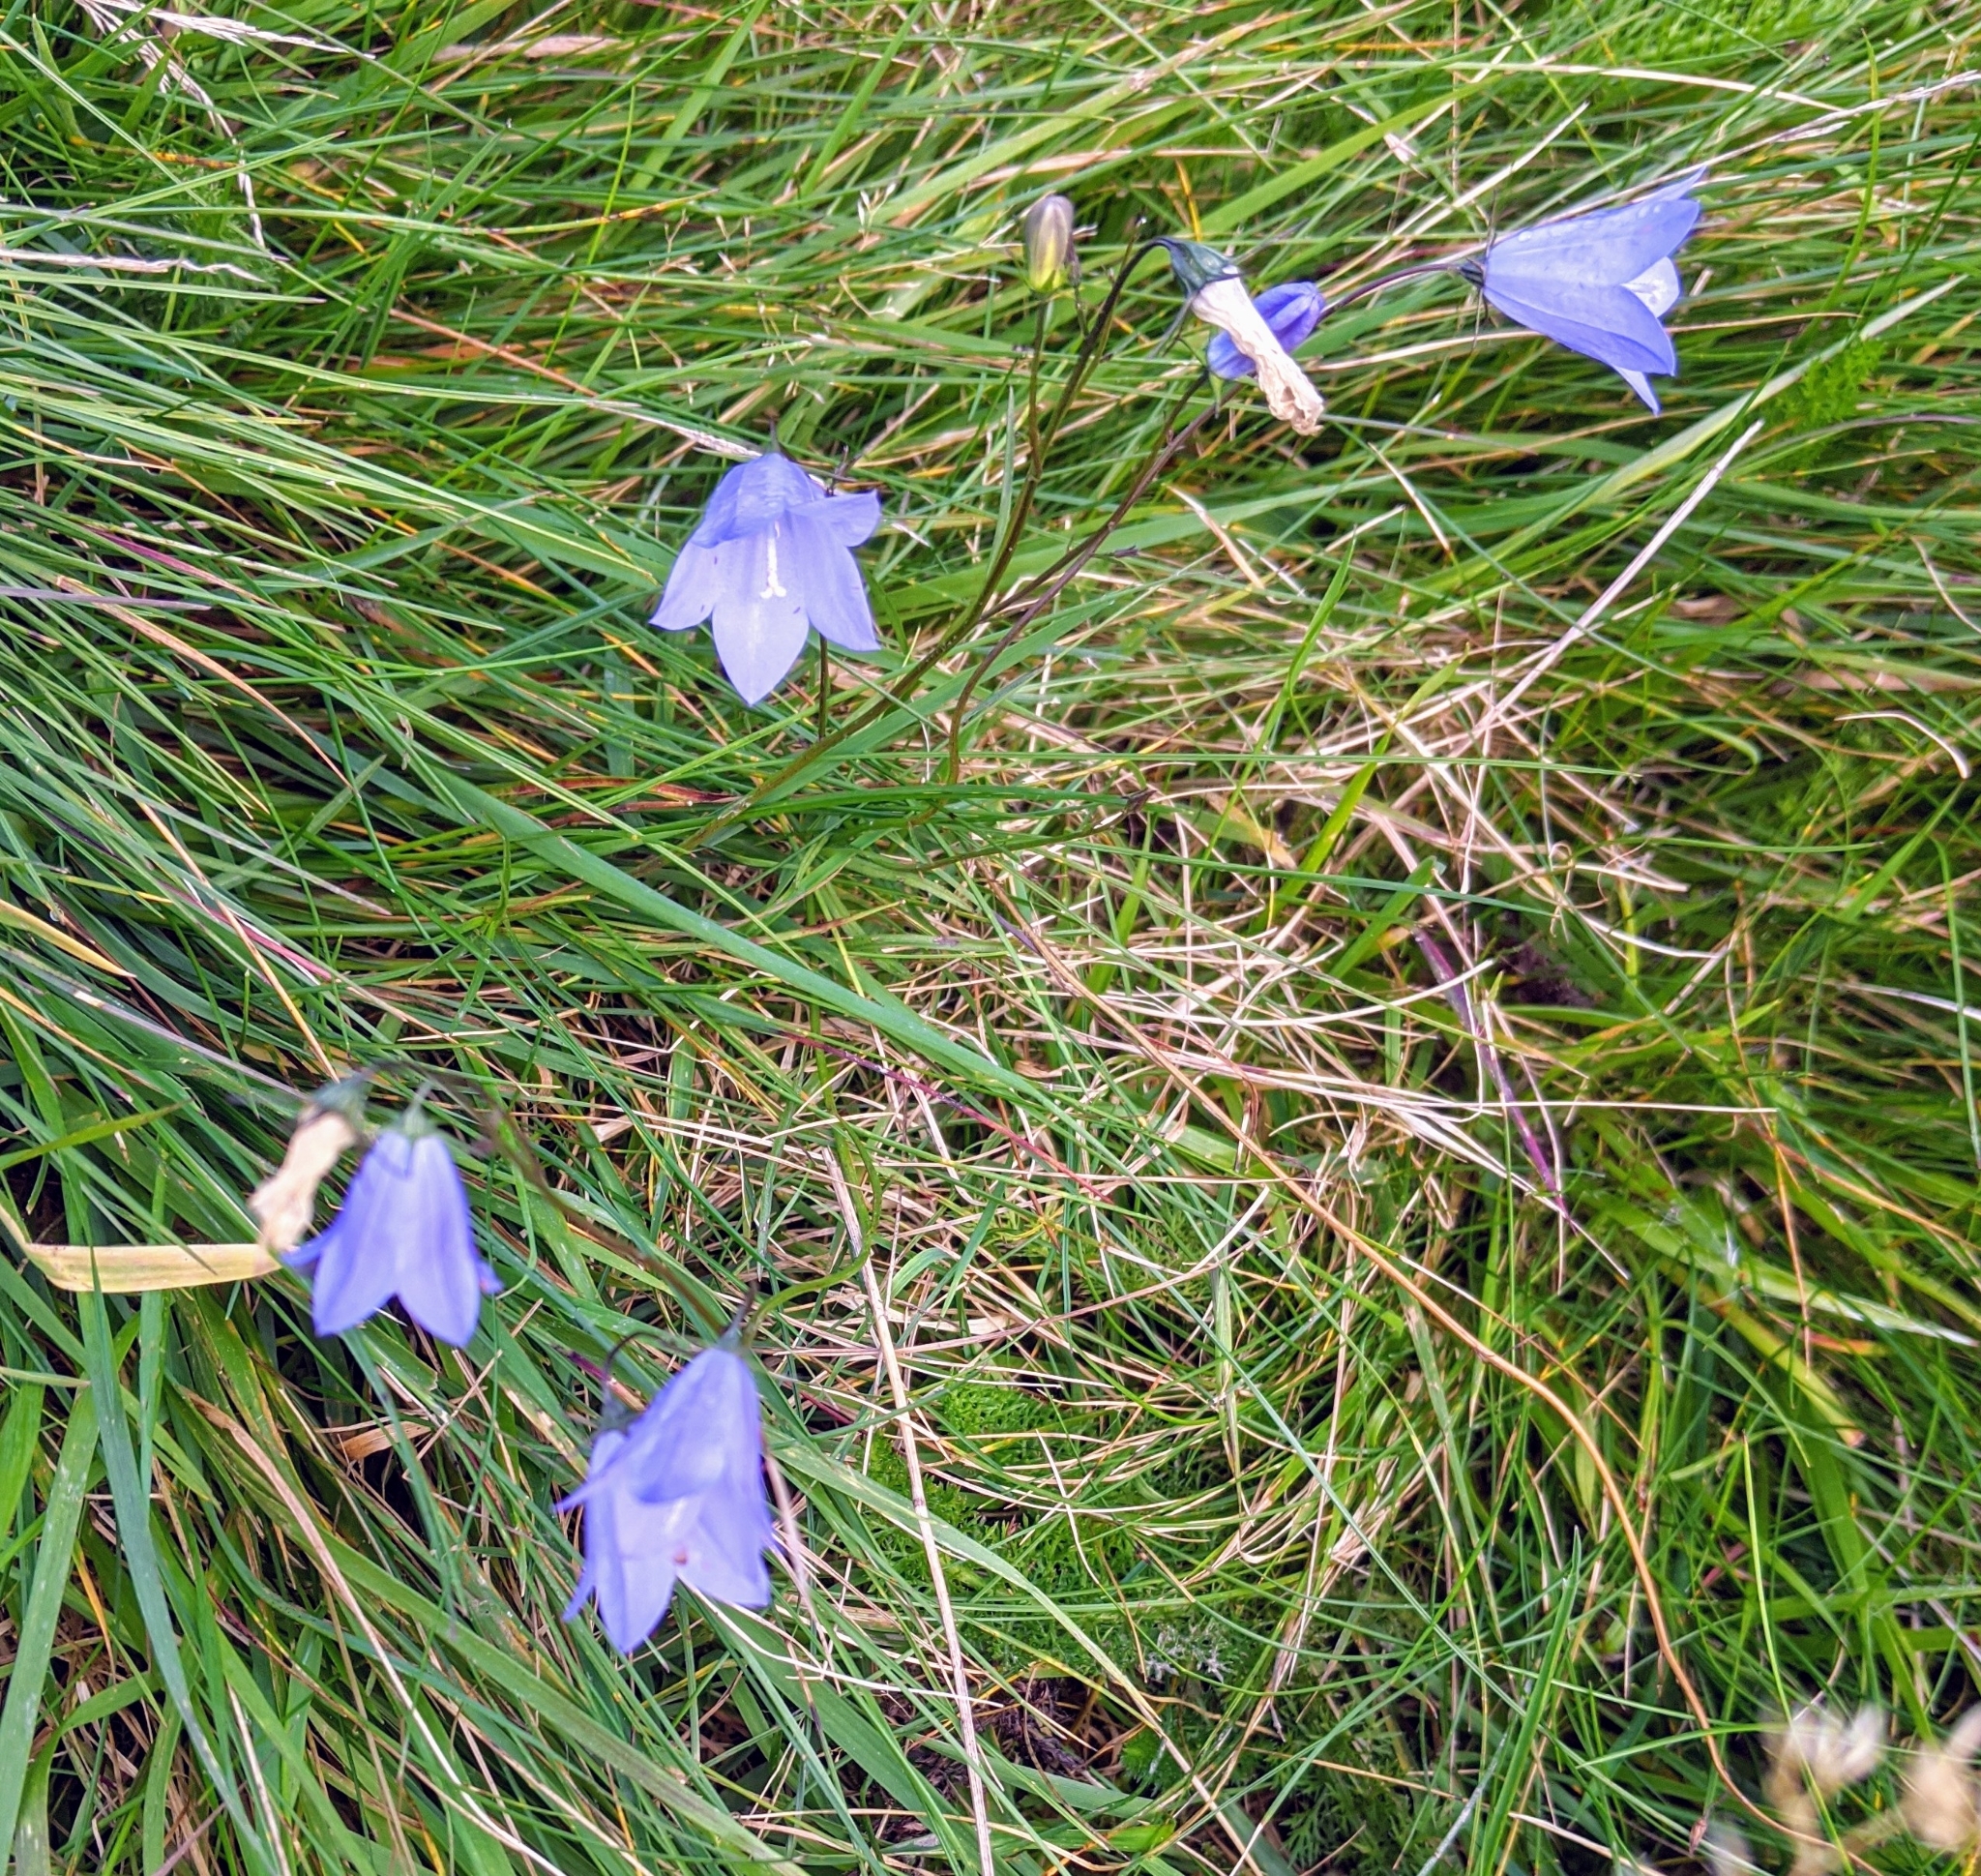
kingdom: Plantae
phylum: Tracheophyta
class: Magnoliopsida
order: Asterales
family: Campanulaceae
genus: Campanula
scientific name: Campanula rotundifolia
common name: Harebell
